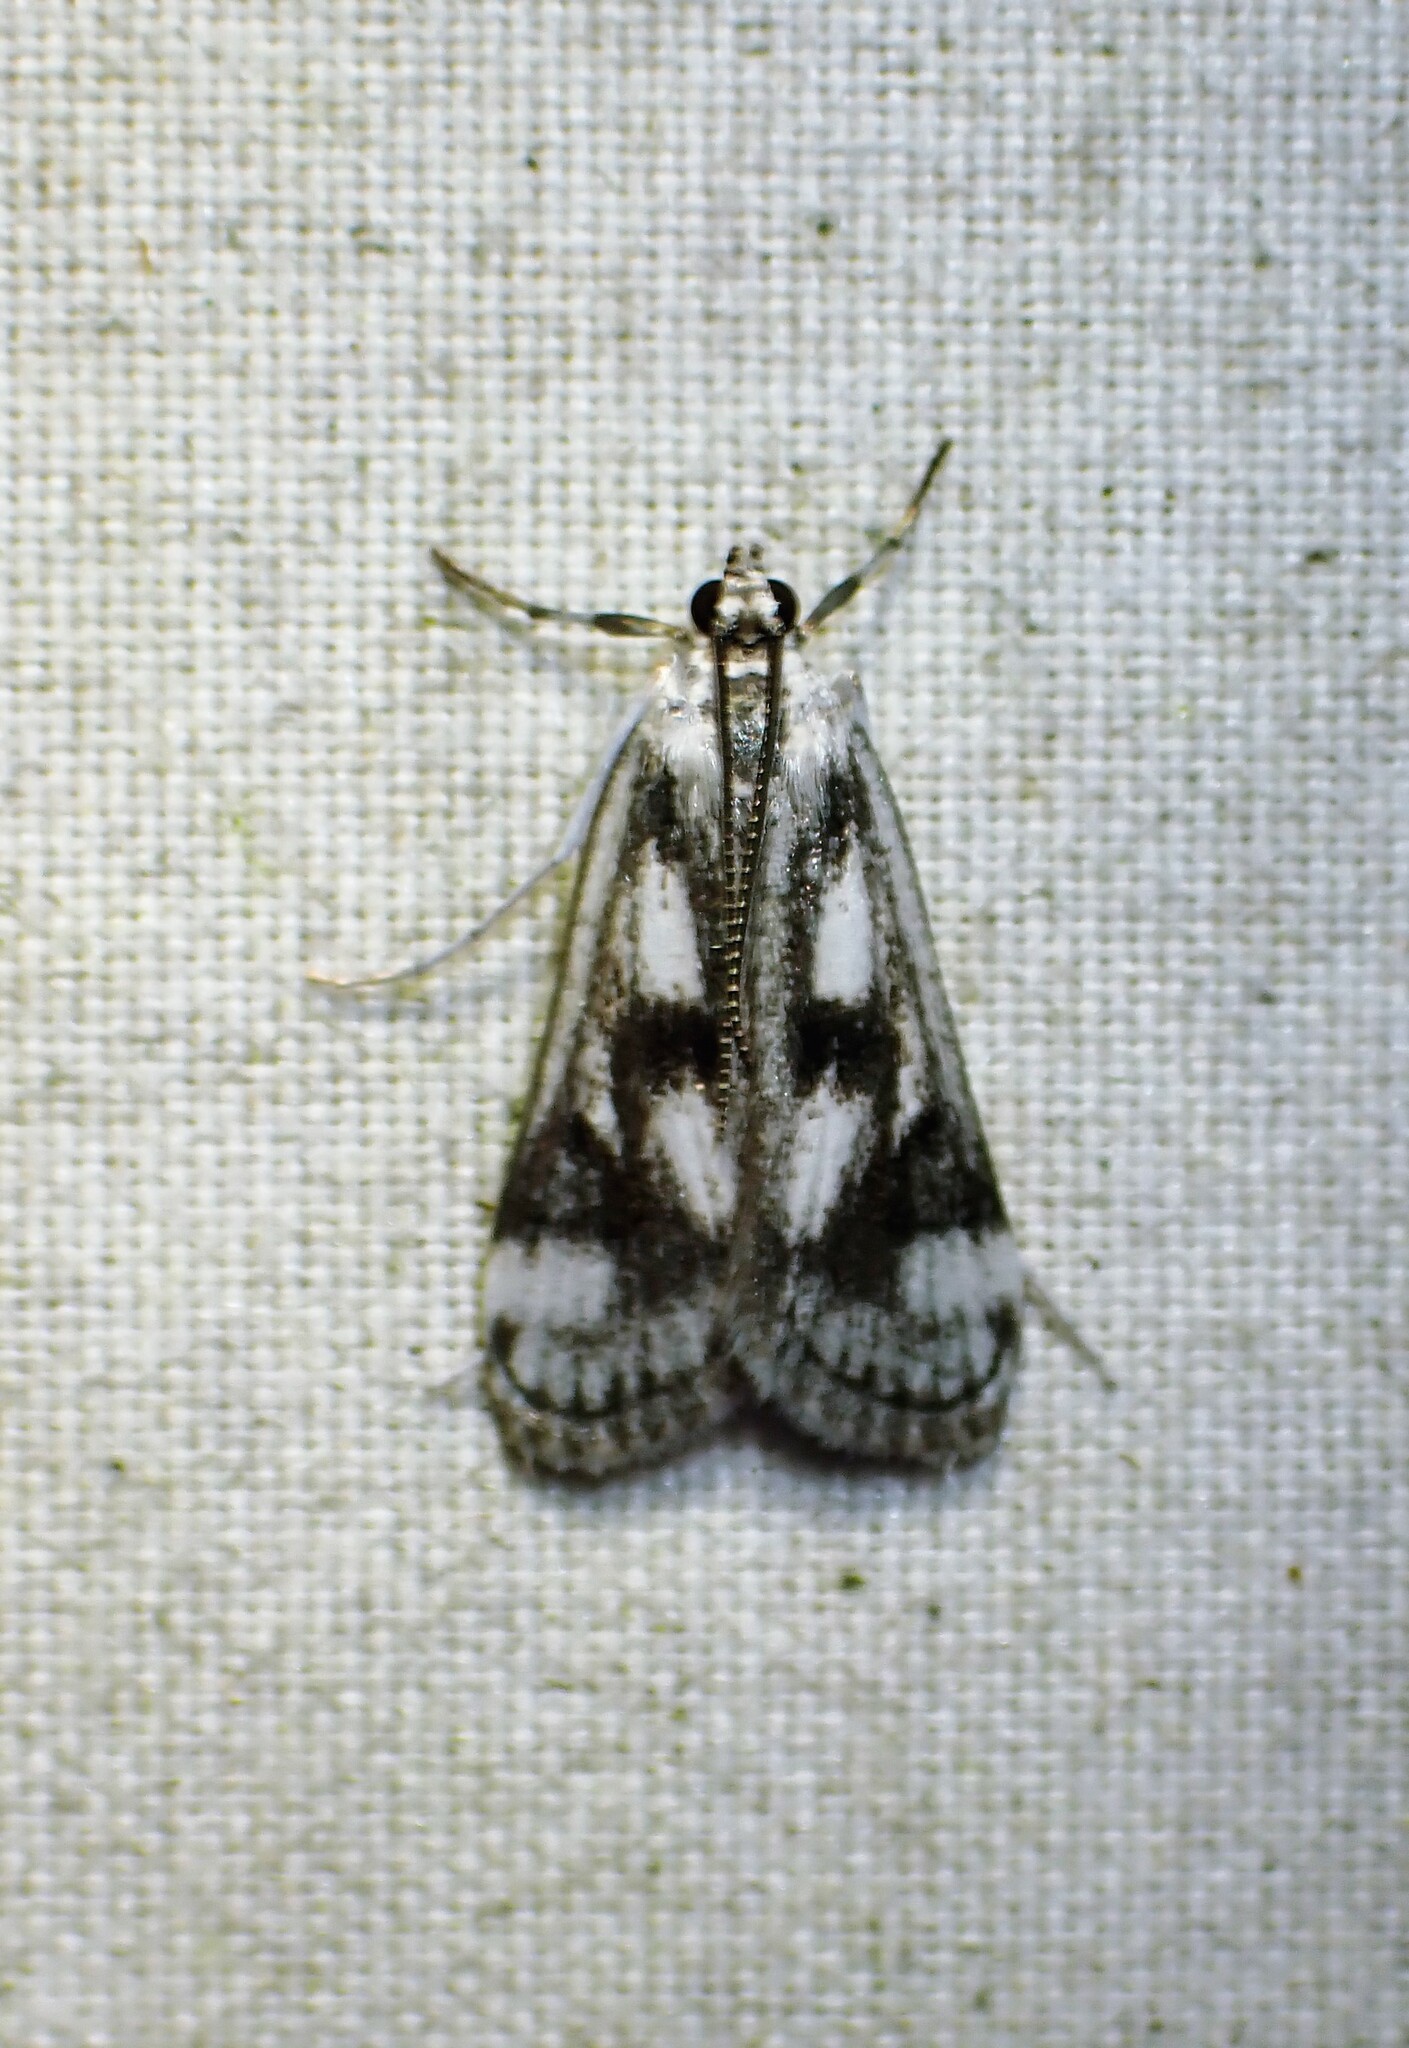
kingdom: Animalia
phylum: Arthropoda
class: Insecta
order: Lepidoptera
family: Crambidae
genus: Parapoynx
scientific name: Parapoynx maculalis
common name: Polymorphic pondweed moth
